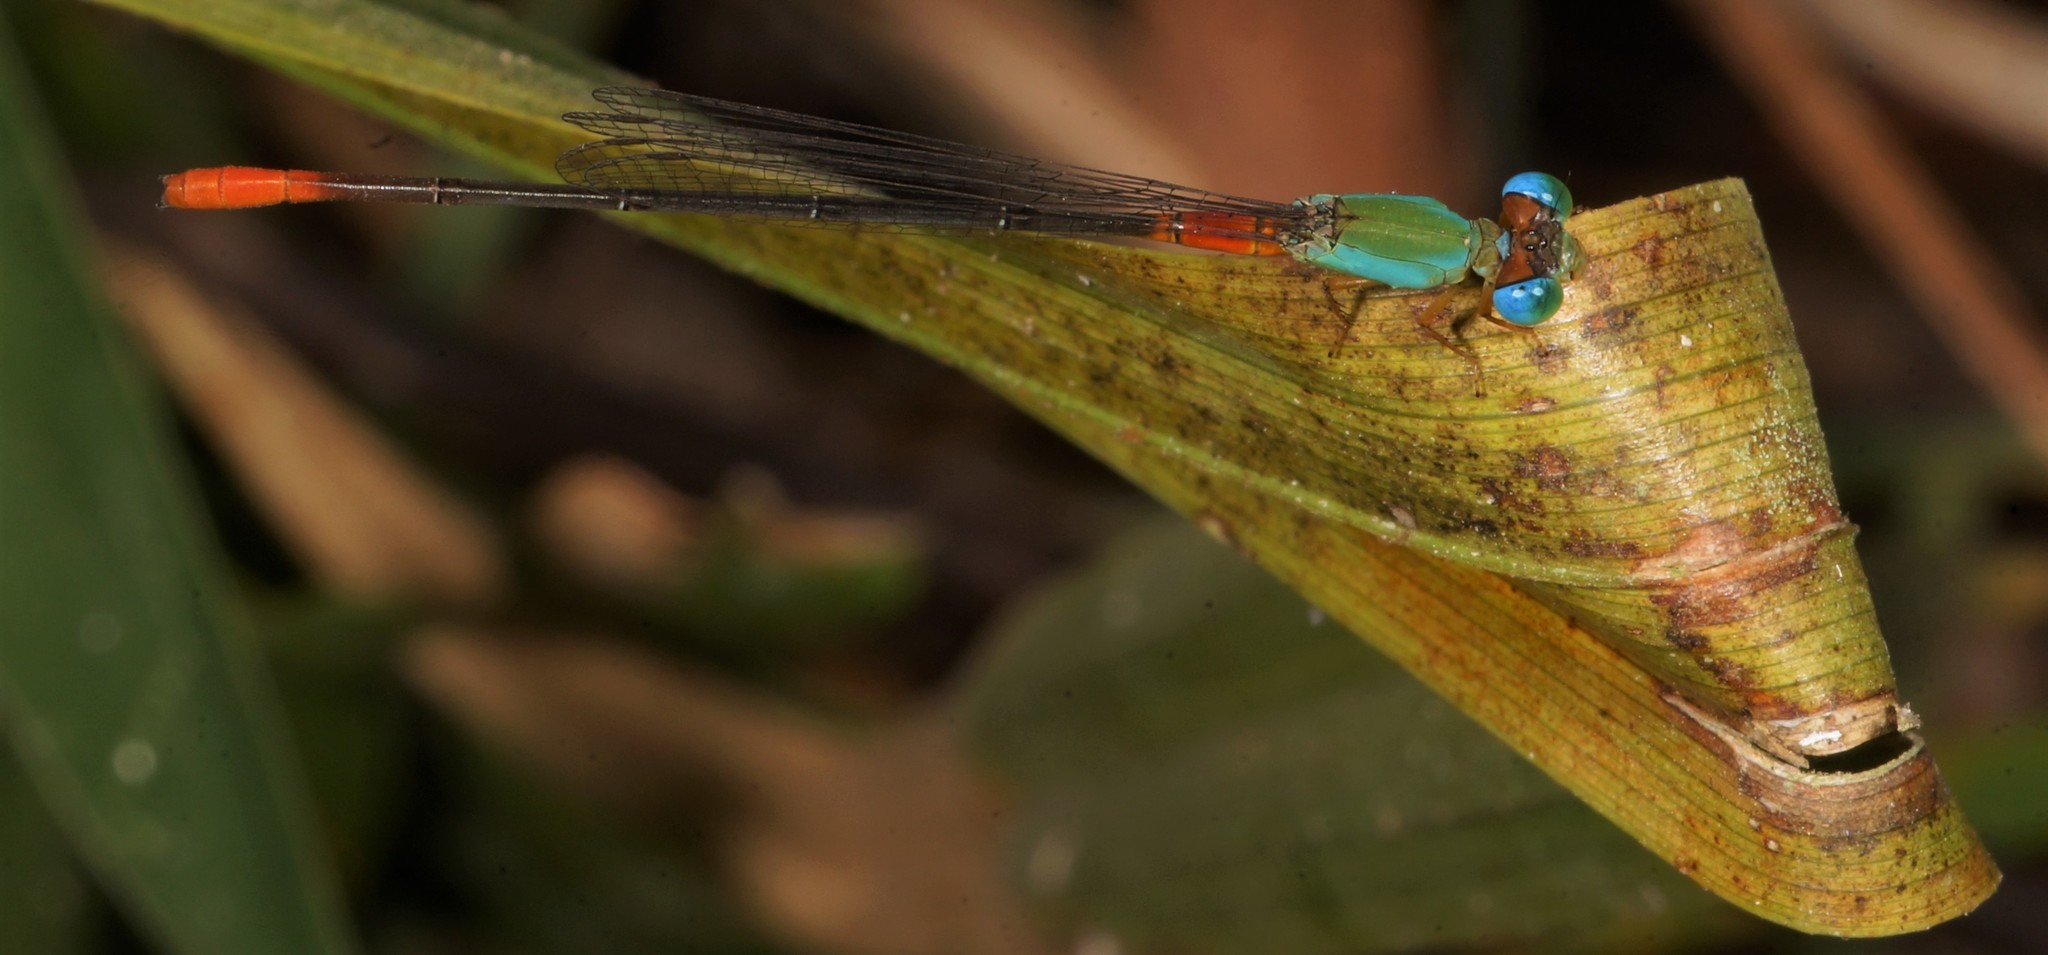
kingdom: Animalia
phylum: Arthropoda
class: Insecta
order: Odonata
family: Coenagrionidae
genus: Ceriagrion
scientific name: Ceriagrion cerinorubellum
